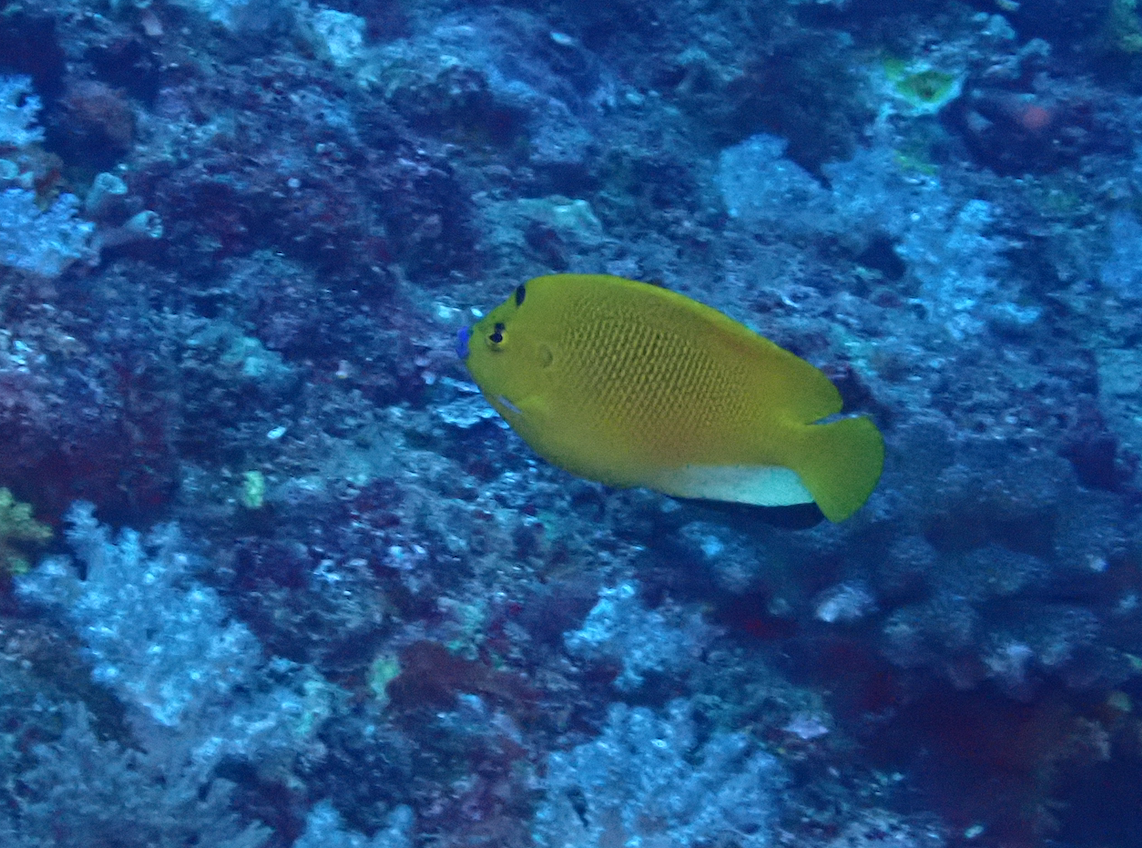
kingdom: Animalia
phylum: Chordata
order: Perciformes
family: Pomacanthidae
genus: Apolemichthys
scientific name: Apolemichthys trimaculatus
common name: Threespot angelfish
